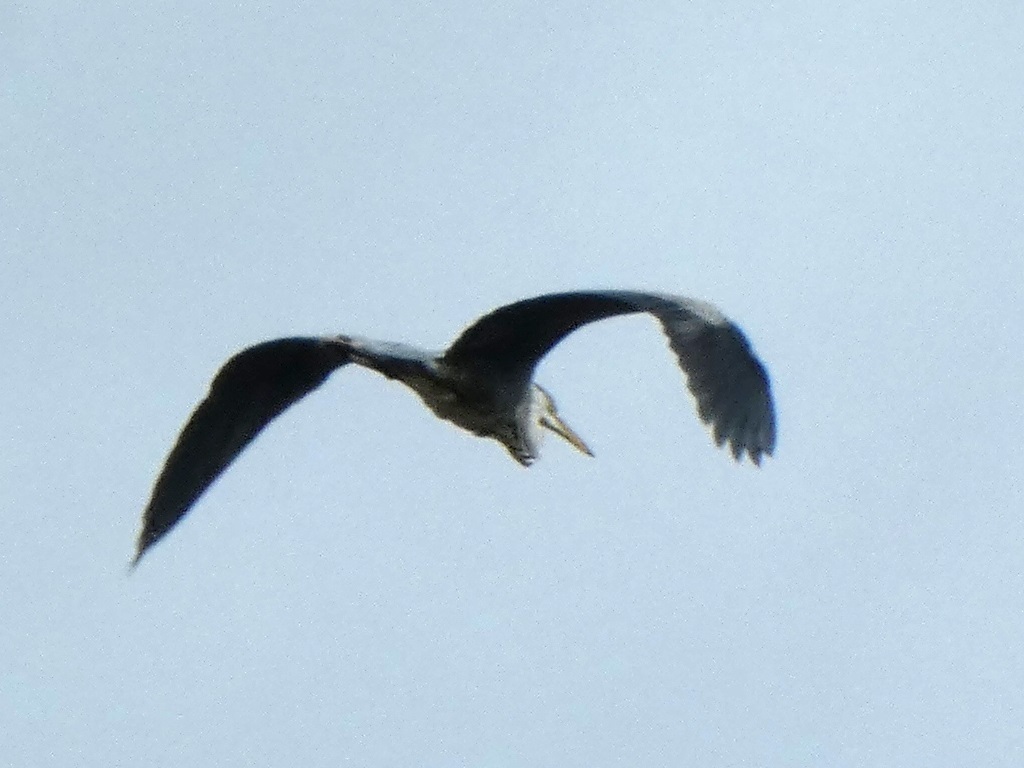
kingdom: Animalia
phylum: Chordata
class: Aves
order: Pelecaniformes
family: Ardeidae
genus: Ardea
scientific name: Ardea cinerea
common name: Grey heron
